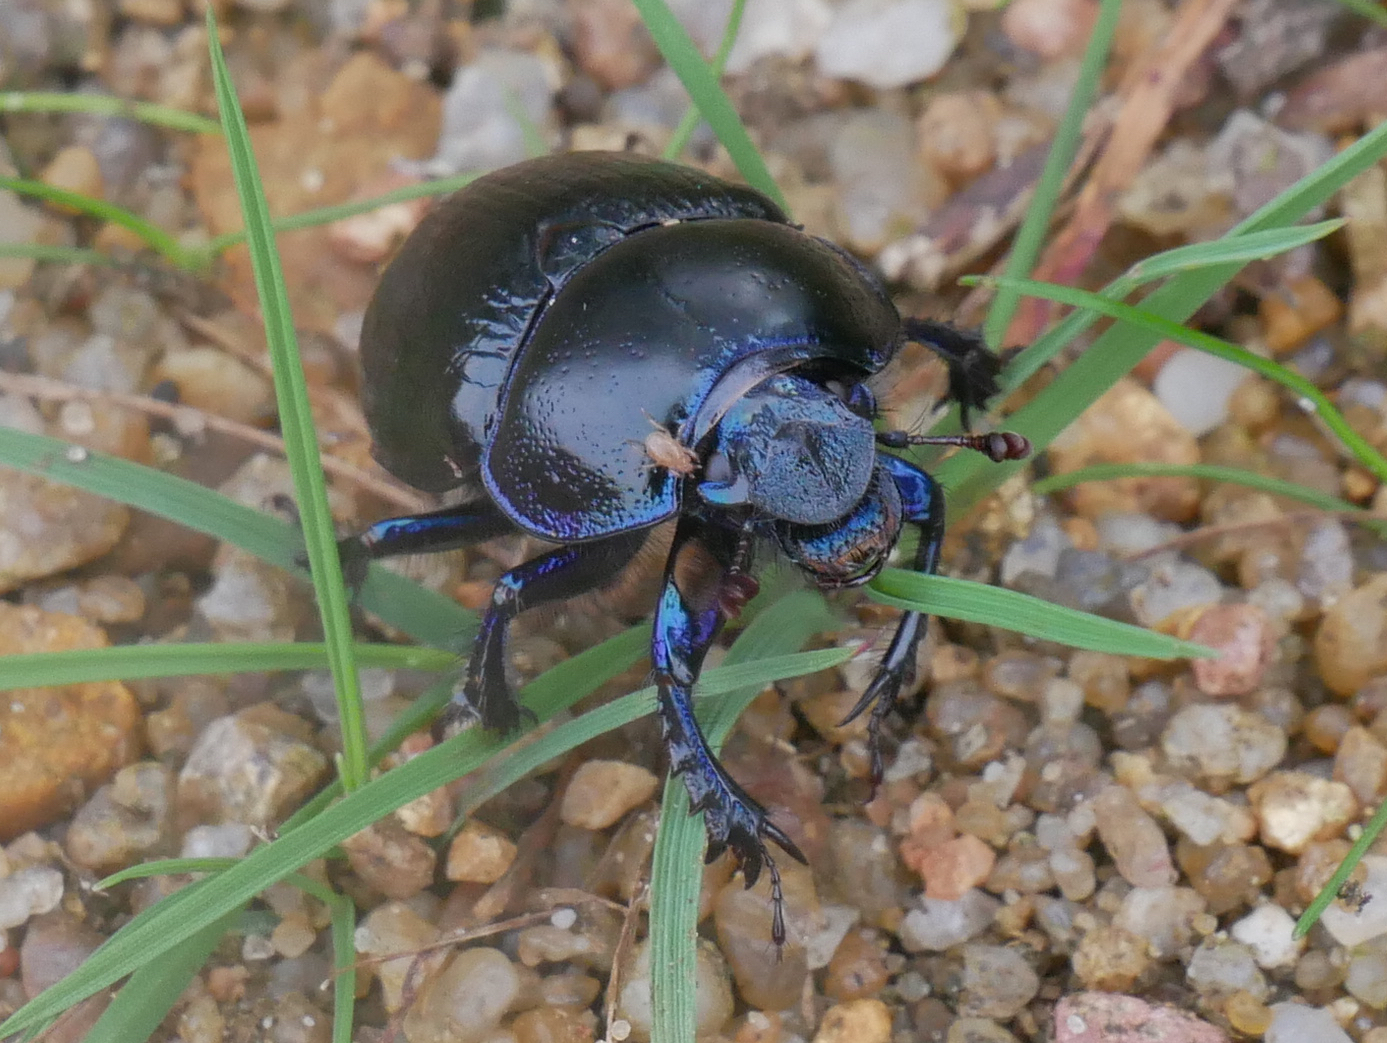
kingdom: Animalia
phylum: Arthropoda
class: Insecta
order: Coleoptera
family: Geotrupidae
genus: Anoplotrupes
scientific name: Anoplotrupes stercorosus
